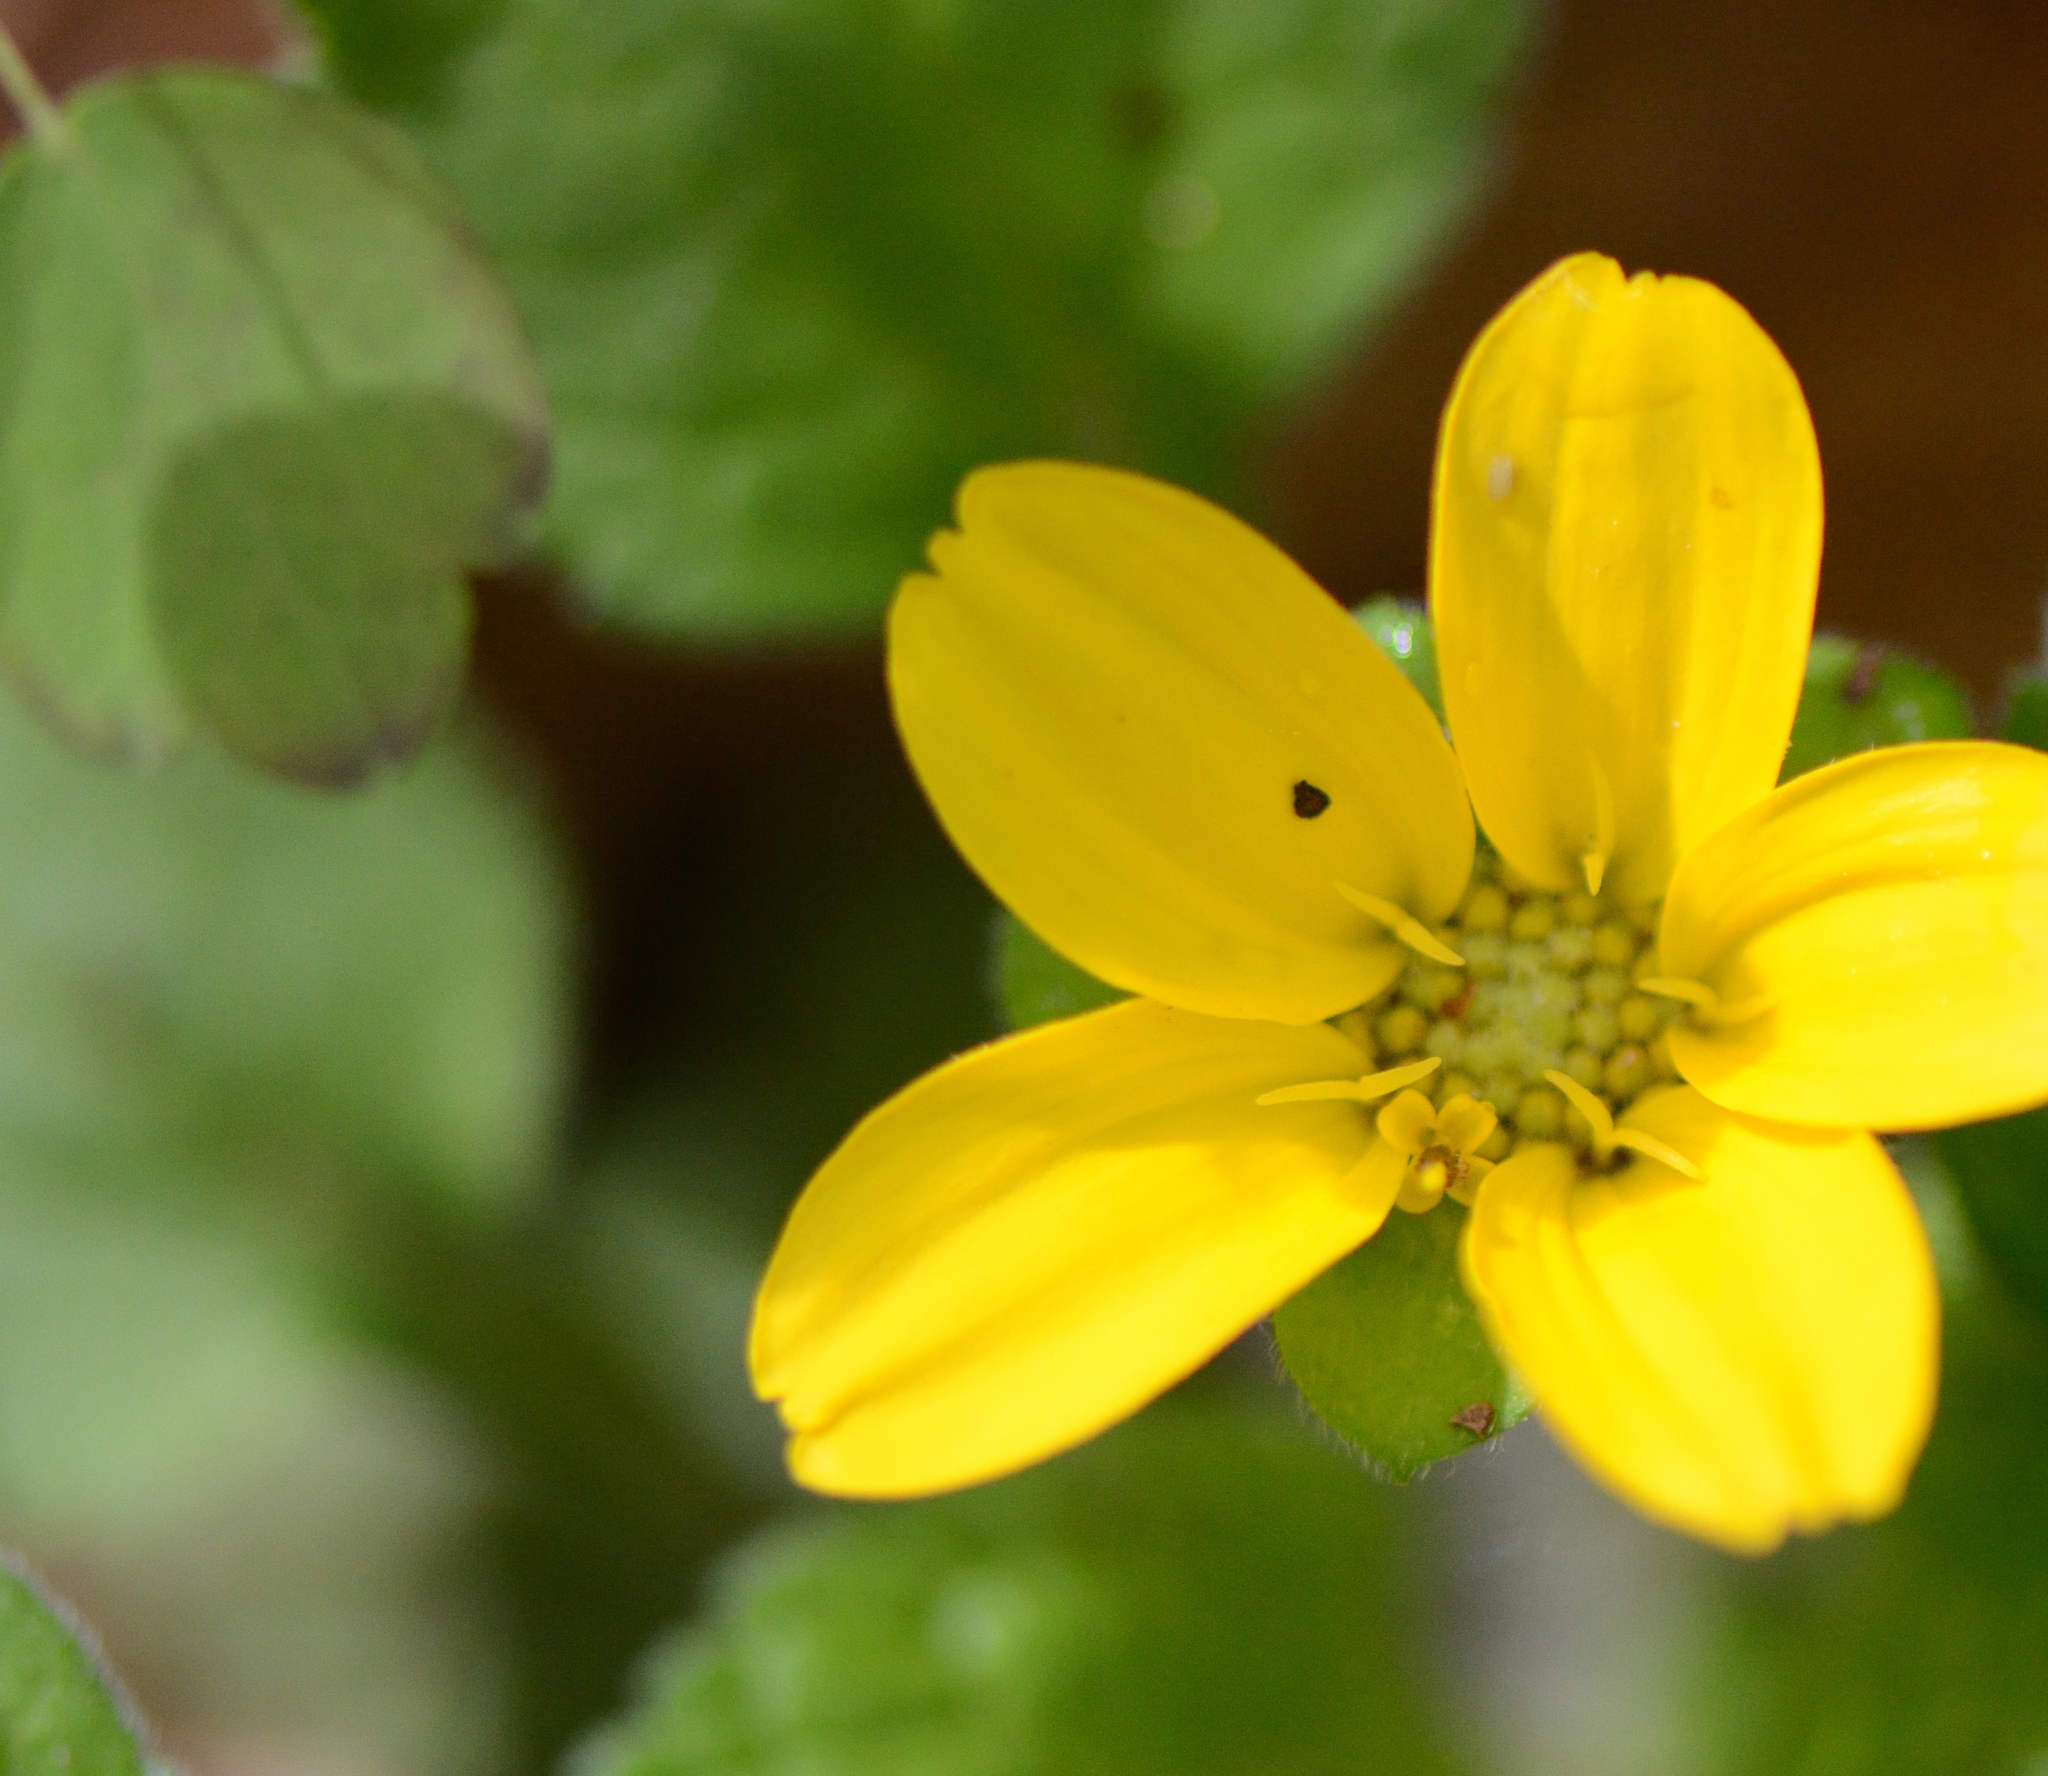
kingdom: Plantae
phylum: Tracheophyta
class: Magnoliopsida
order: Asterales
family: Asteraceae
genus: Chrysogonum
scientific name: Chrysogonum virginianum
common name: Golden-knee
